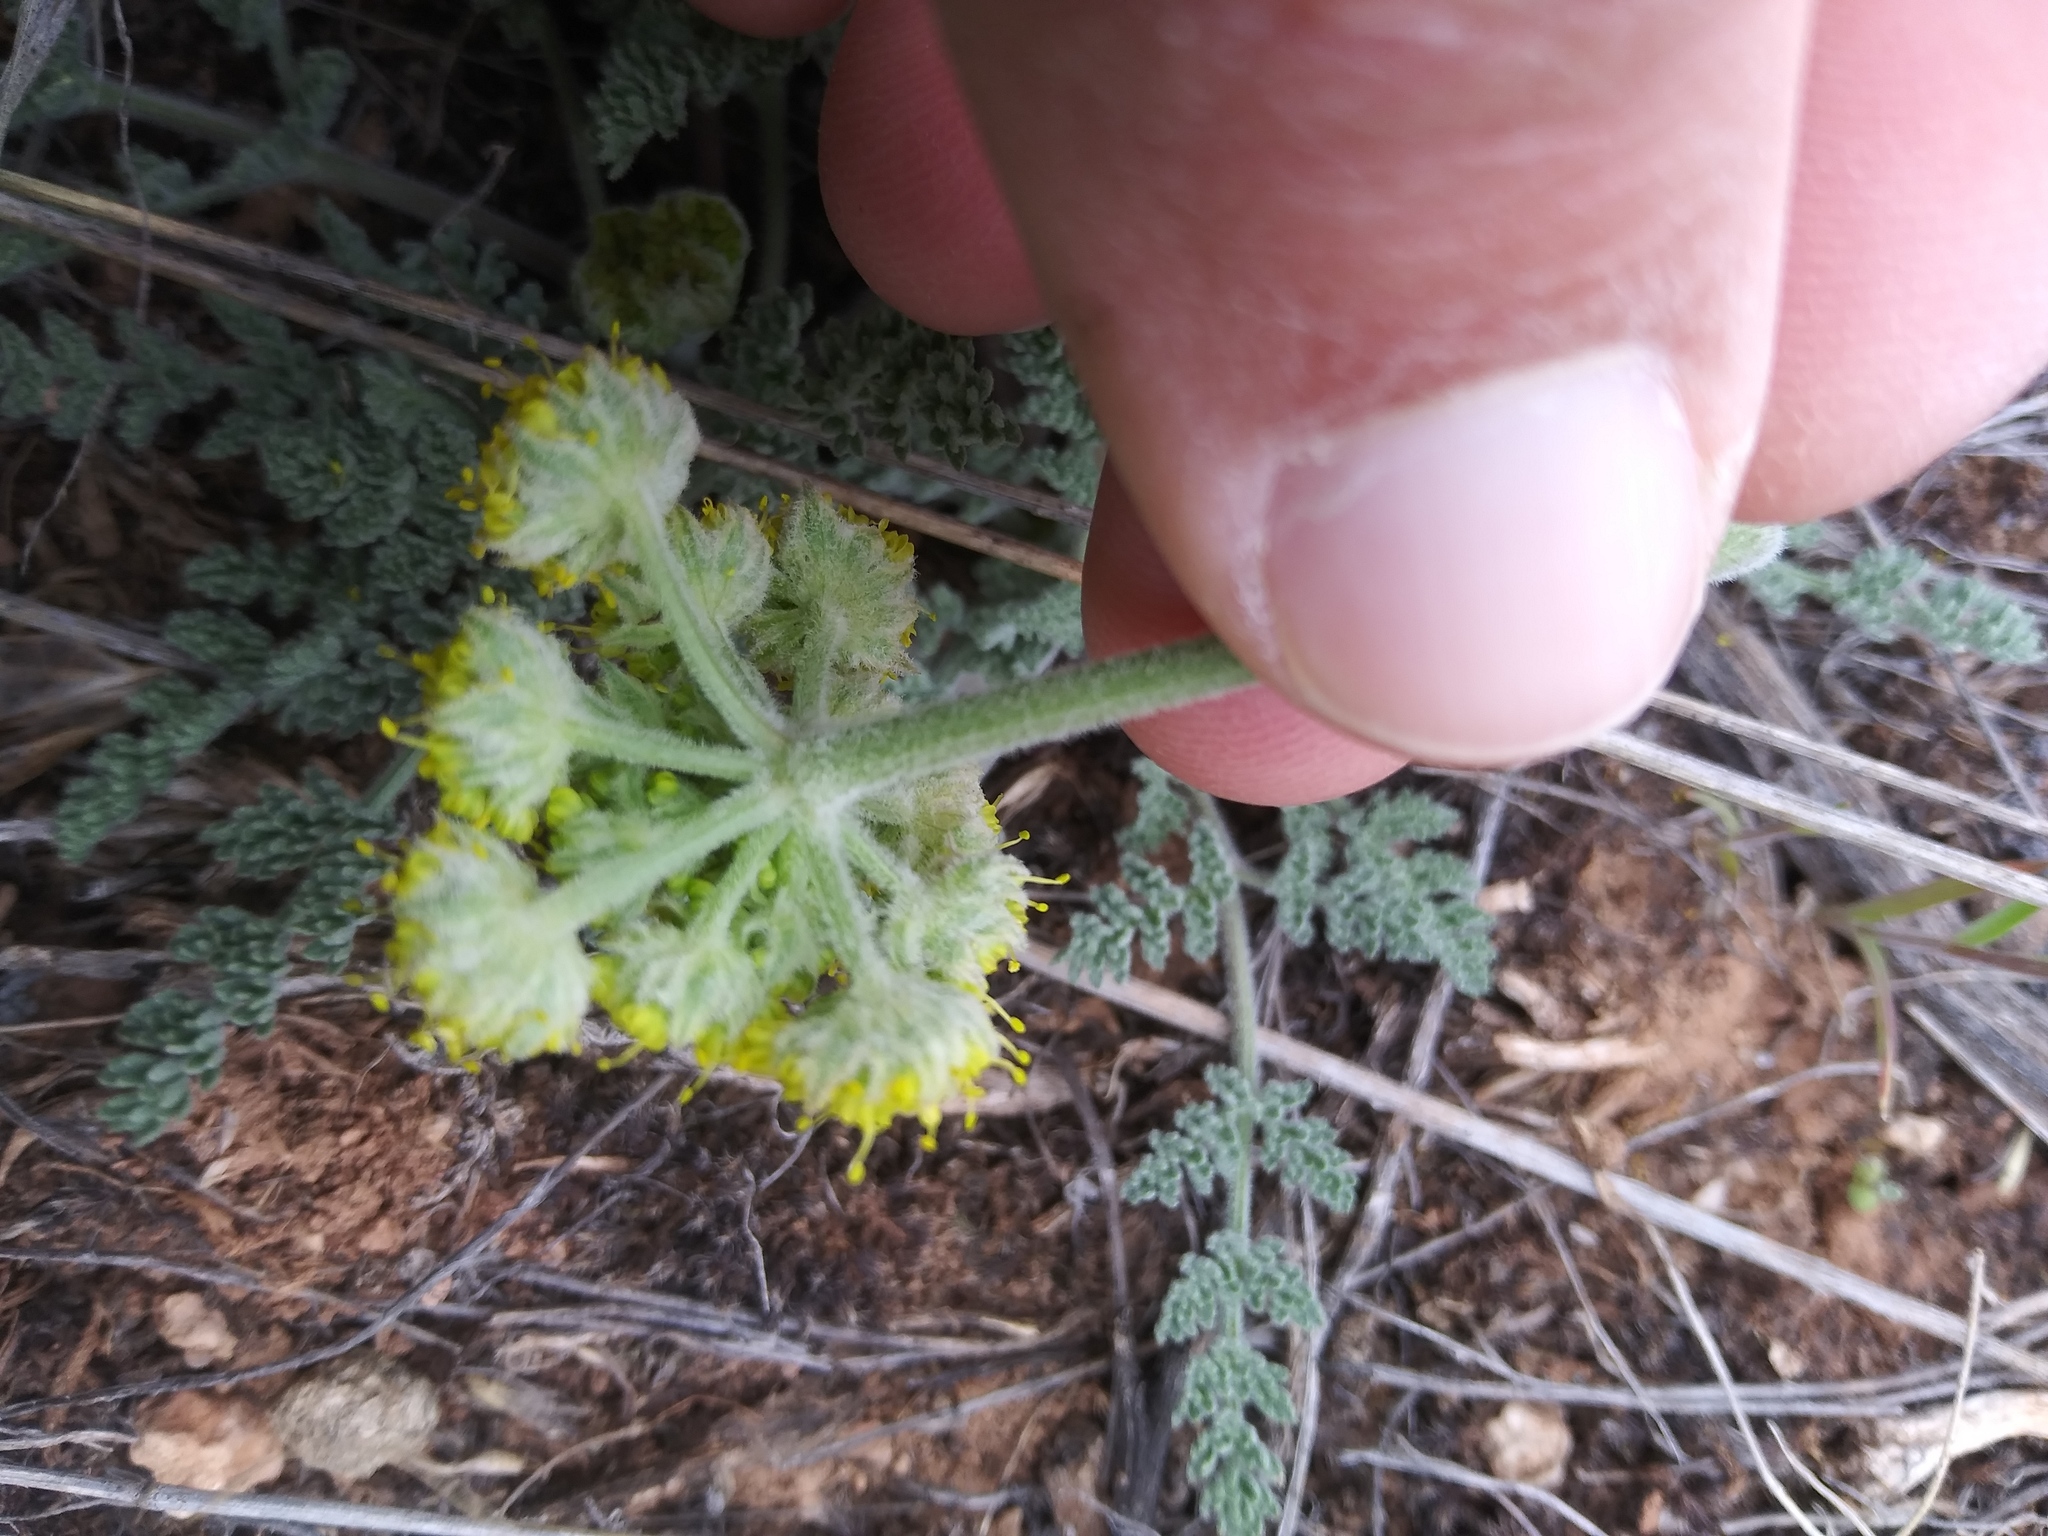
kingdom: Plantae
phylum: Tracheophyta
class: Magnoliopsida
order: Apiales
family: Apiaceae
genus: Lomatium
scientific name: Lomatium foeniculaceum
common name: Desert-parsley
